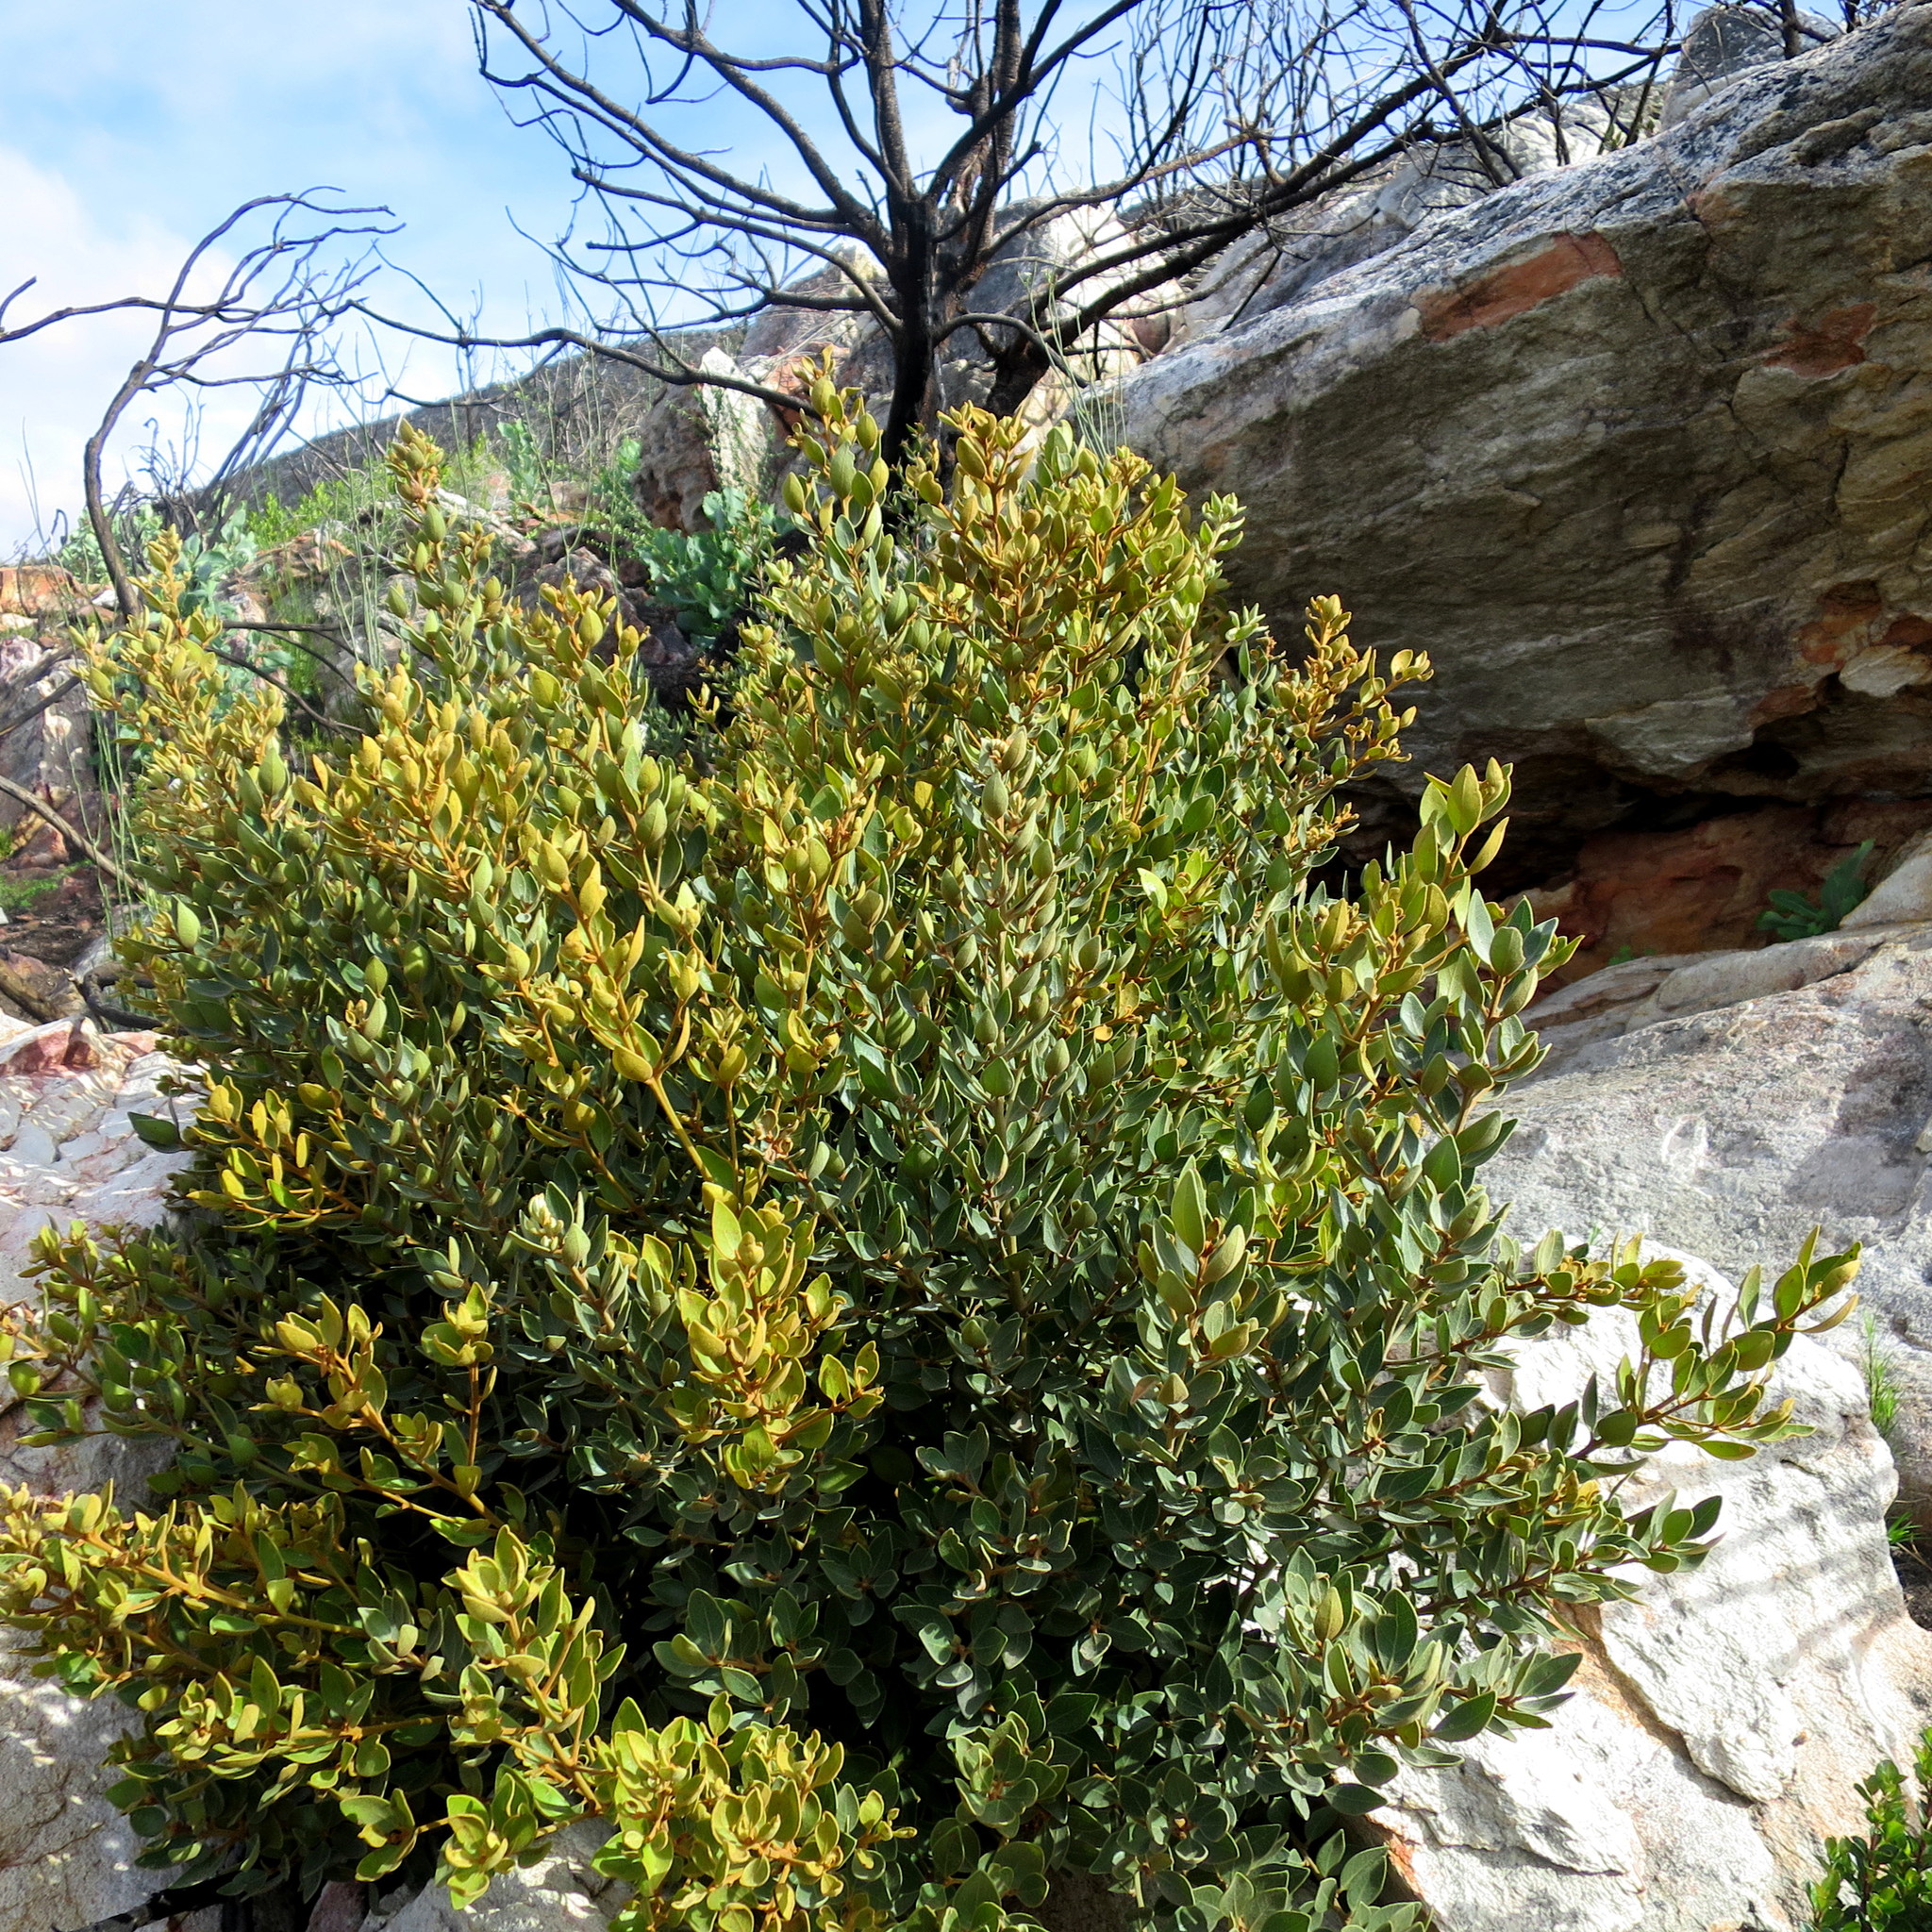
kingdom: Plantae
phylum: Tracheophyta
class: Magnoliopsida
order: Ericales
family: Ebenaceae
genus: Euclea
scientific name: Euclea polyandra
